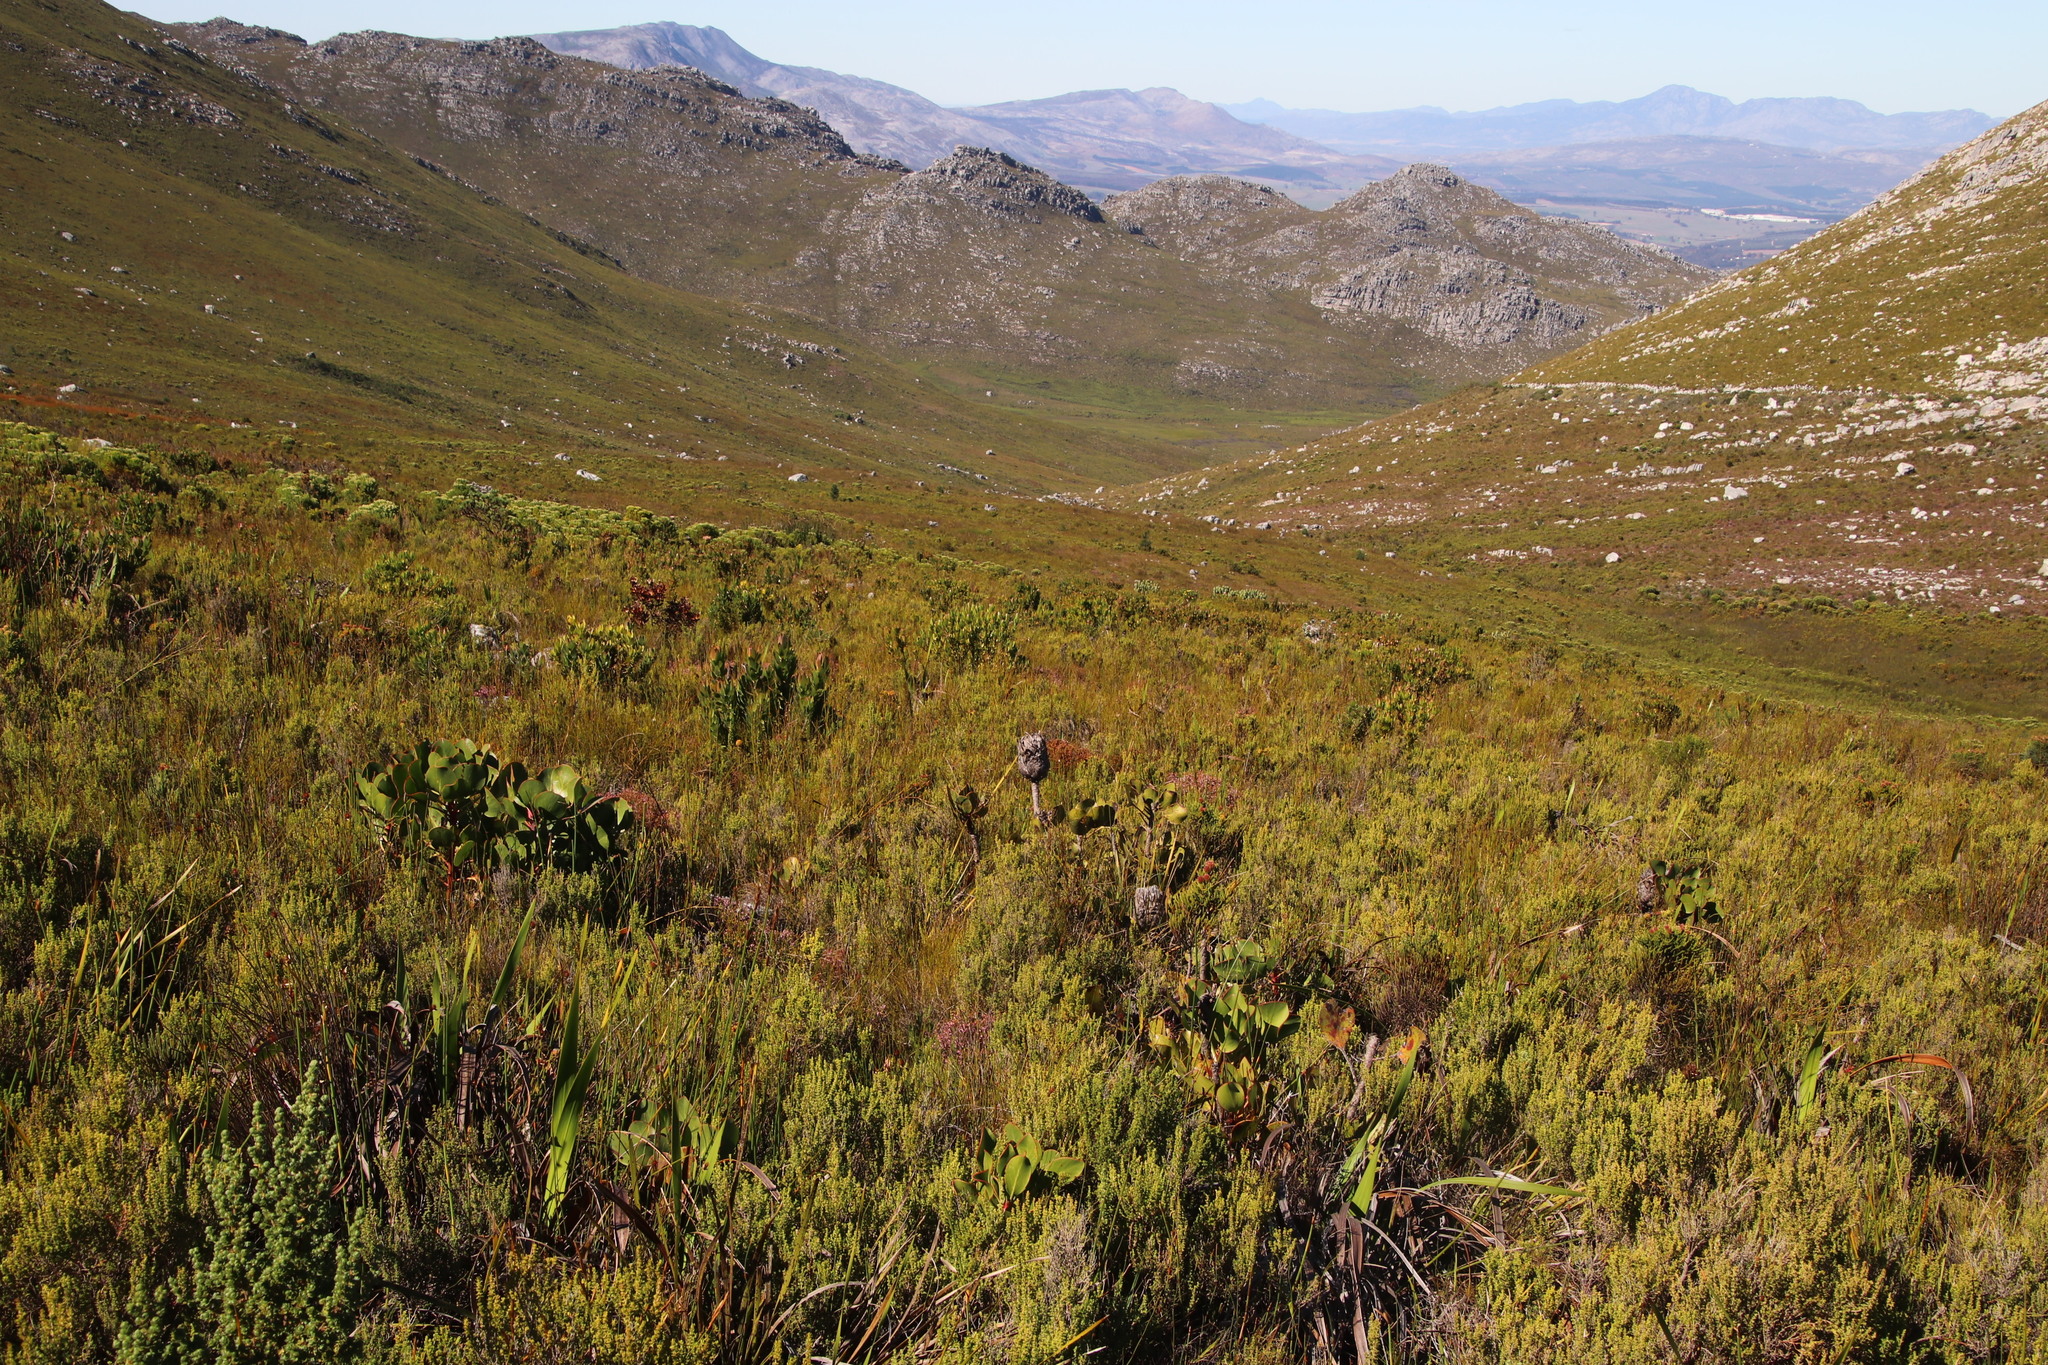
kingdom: Plantae
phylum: Tracheophyta
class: Magnoliopsida
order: Proteales
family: Proteaceae
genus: Protea
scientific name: Protea cynaroides
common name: King protea
